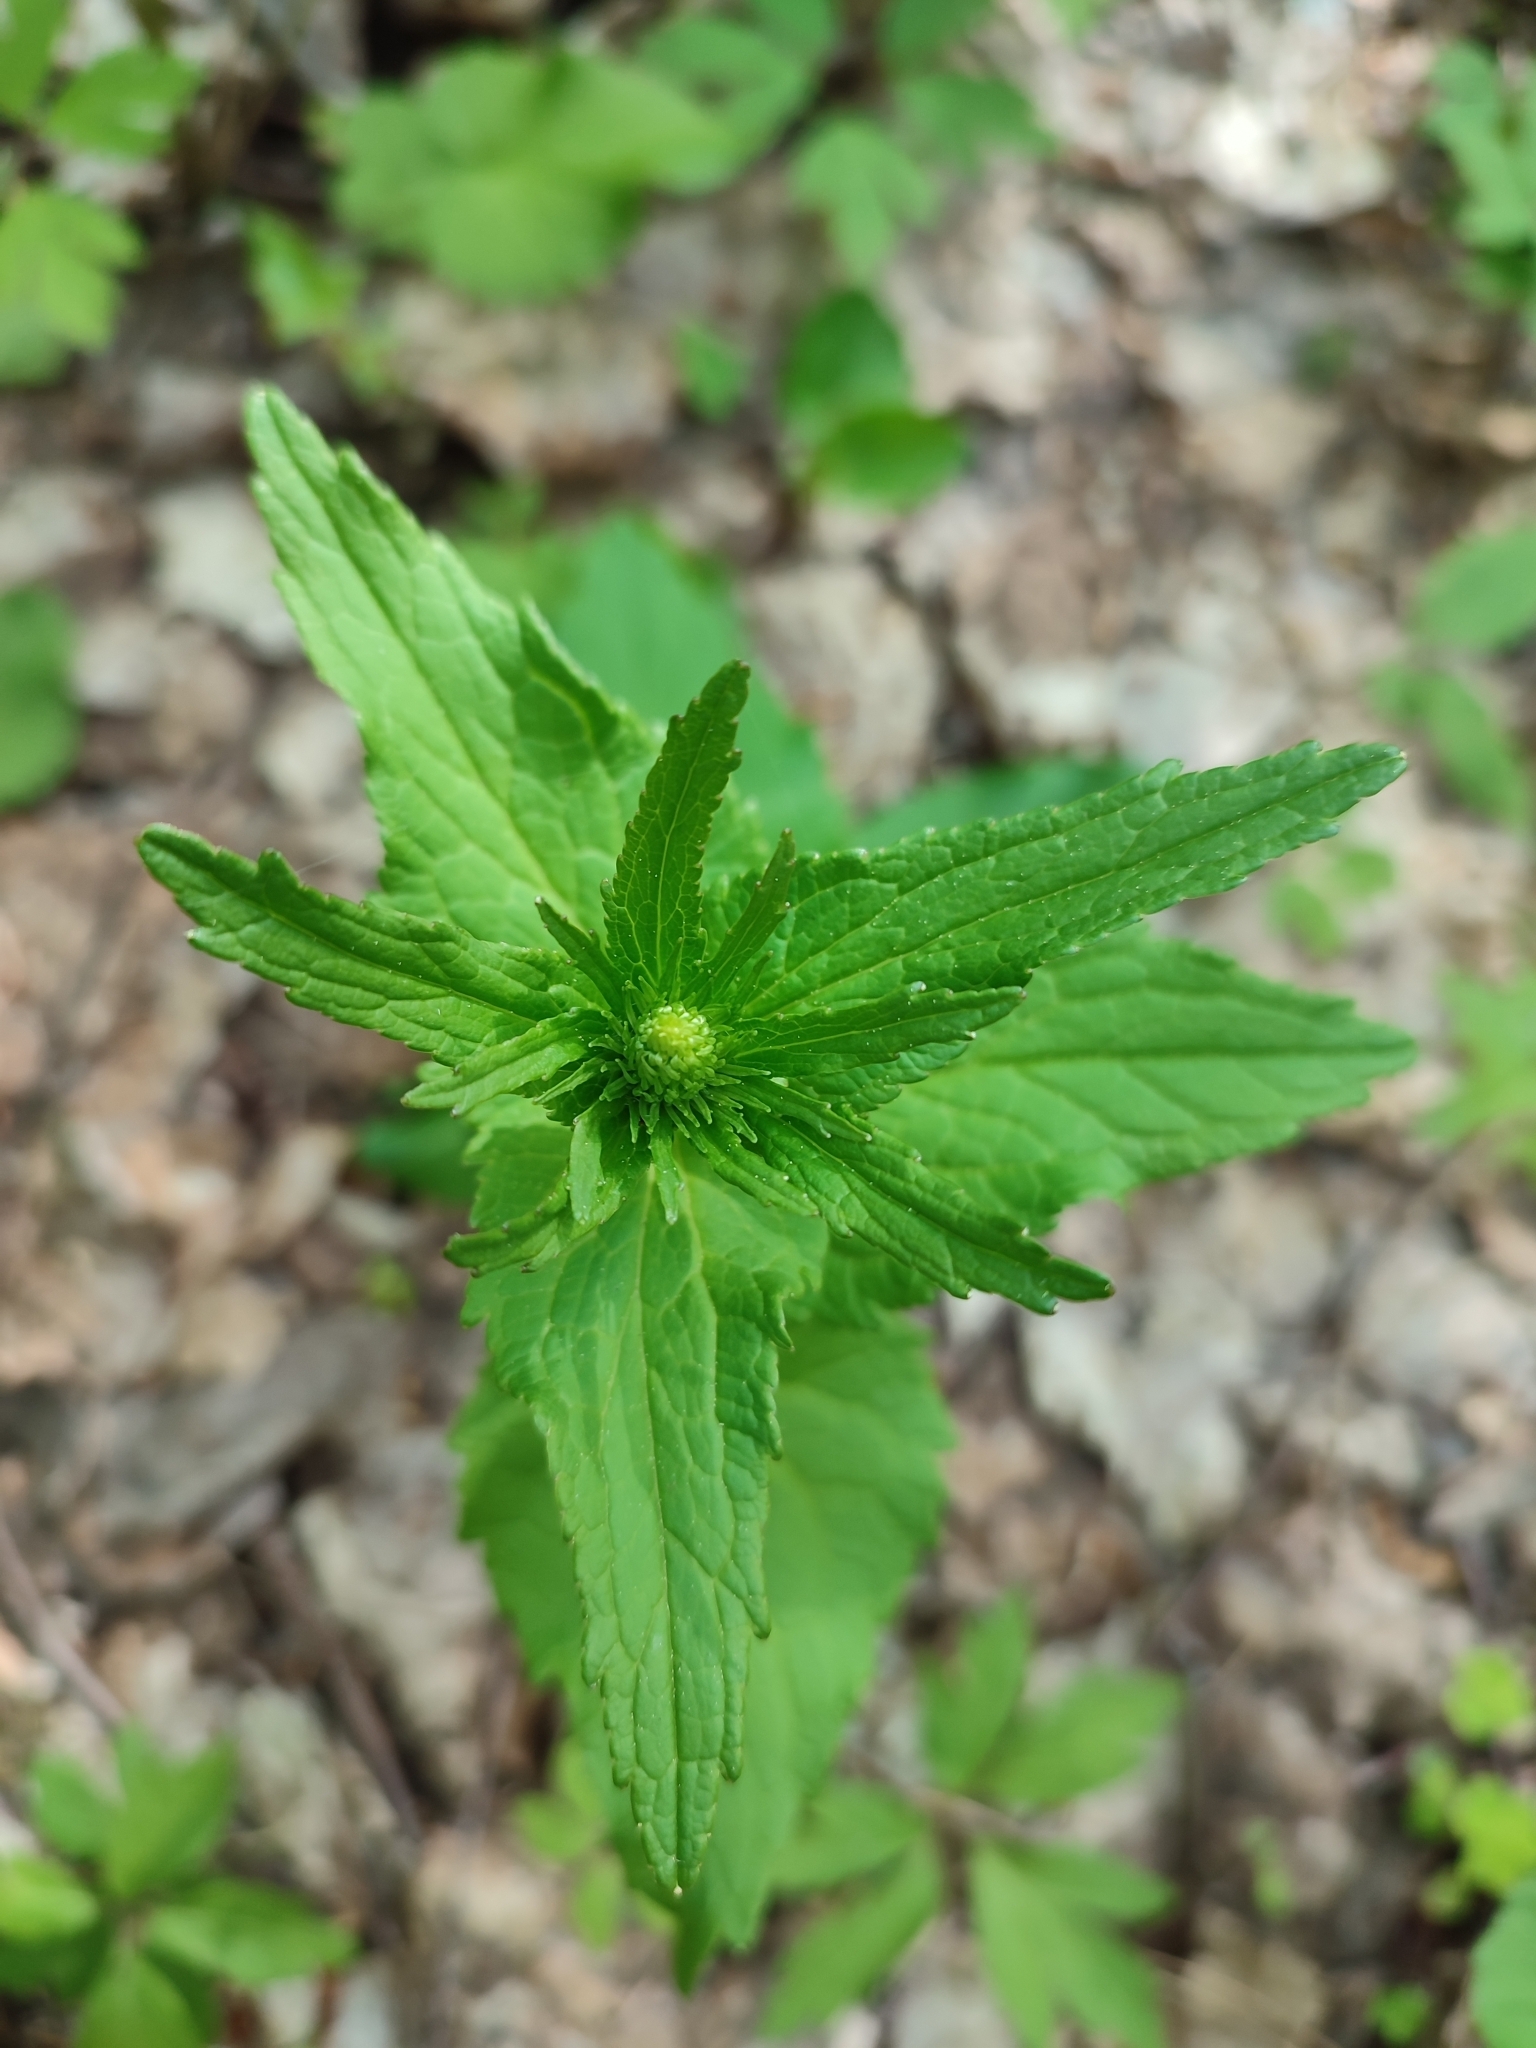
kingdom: Plantae
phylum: Tracheophyta
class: Magnoliopsida
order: Asterales
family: Campanulaceae
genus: Phyteuma
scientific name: Phyteuma spicatum
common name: Spiked rampion
